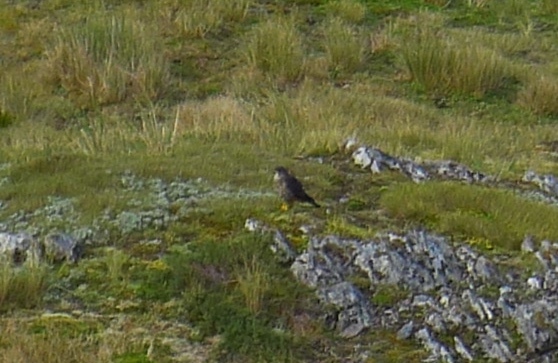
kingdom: Animalia
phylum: Chordata
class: Aves
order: Falconiformes
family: Falconidae
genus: Falco
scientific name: Falco novaeseelandiae
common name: New zealand falcon
